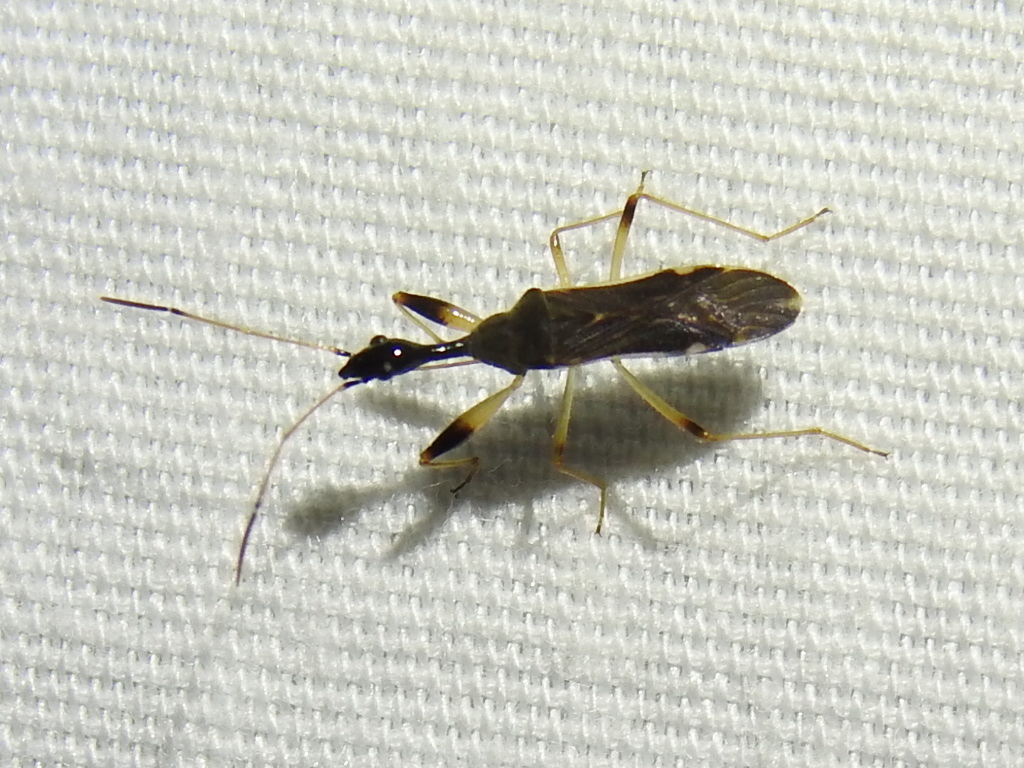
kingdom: Animalia
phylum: Arthropoda
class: Insecta
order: Hemiptera
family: Rhyparochromidae
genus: Myodocha
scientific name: Myodocha serripes
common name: Long-necked seed bug
